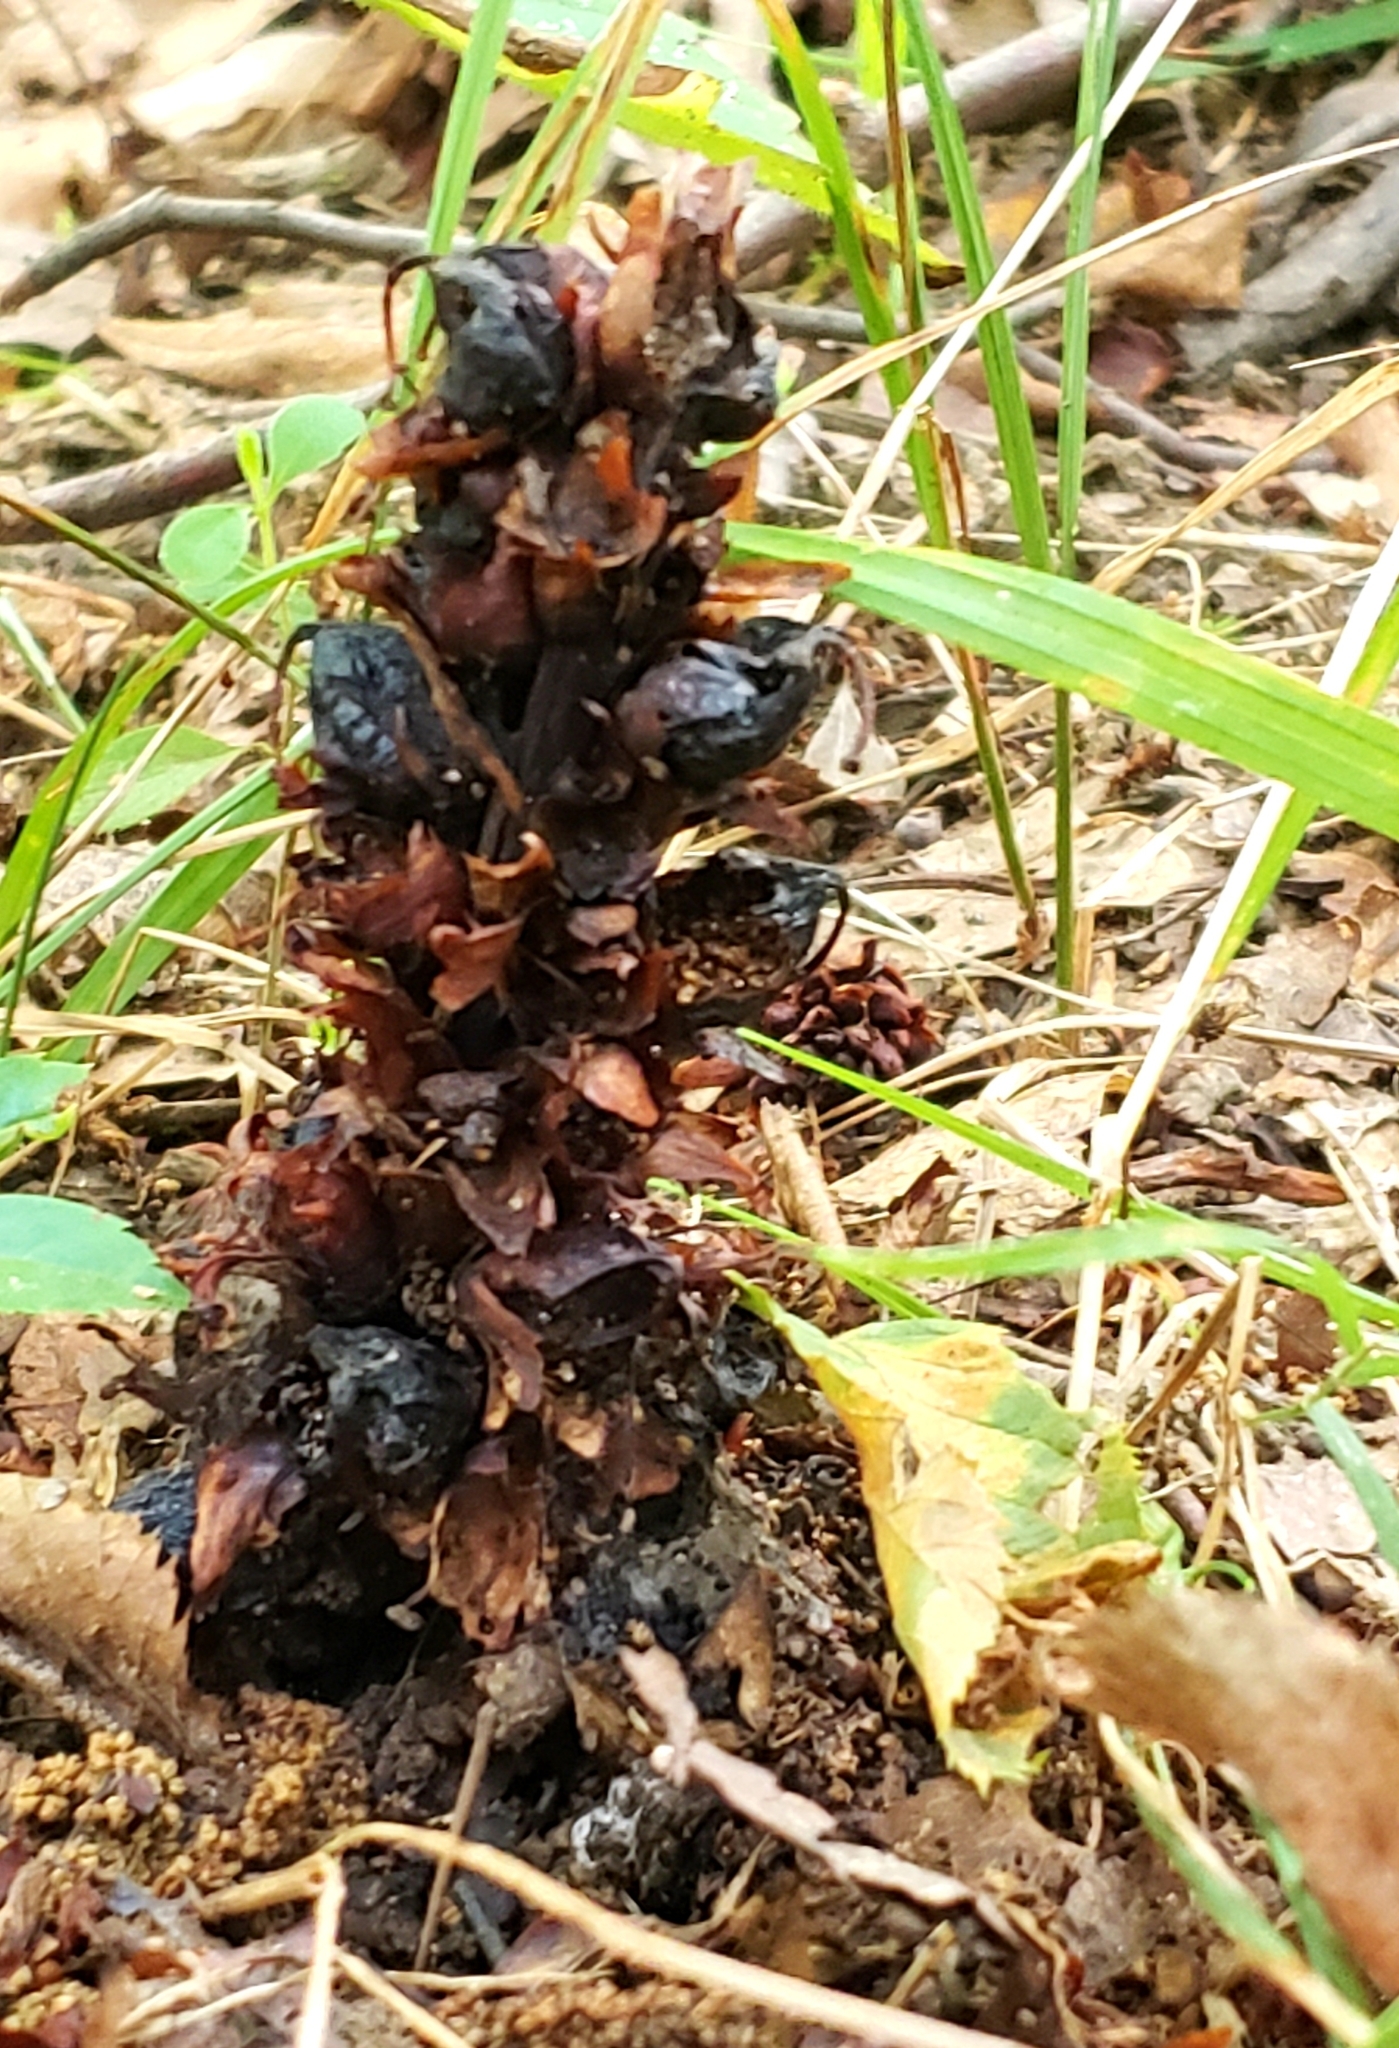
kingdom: Plantae
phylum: Tracheophyta
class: Magnoliopsida
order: Lamiales
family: Orobanchaceae
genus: Conopholis
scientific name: Conopholis americana
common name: American cancer-root
